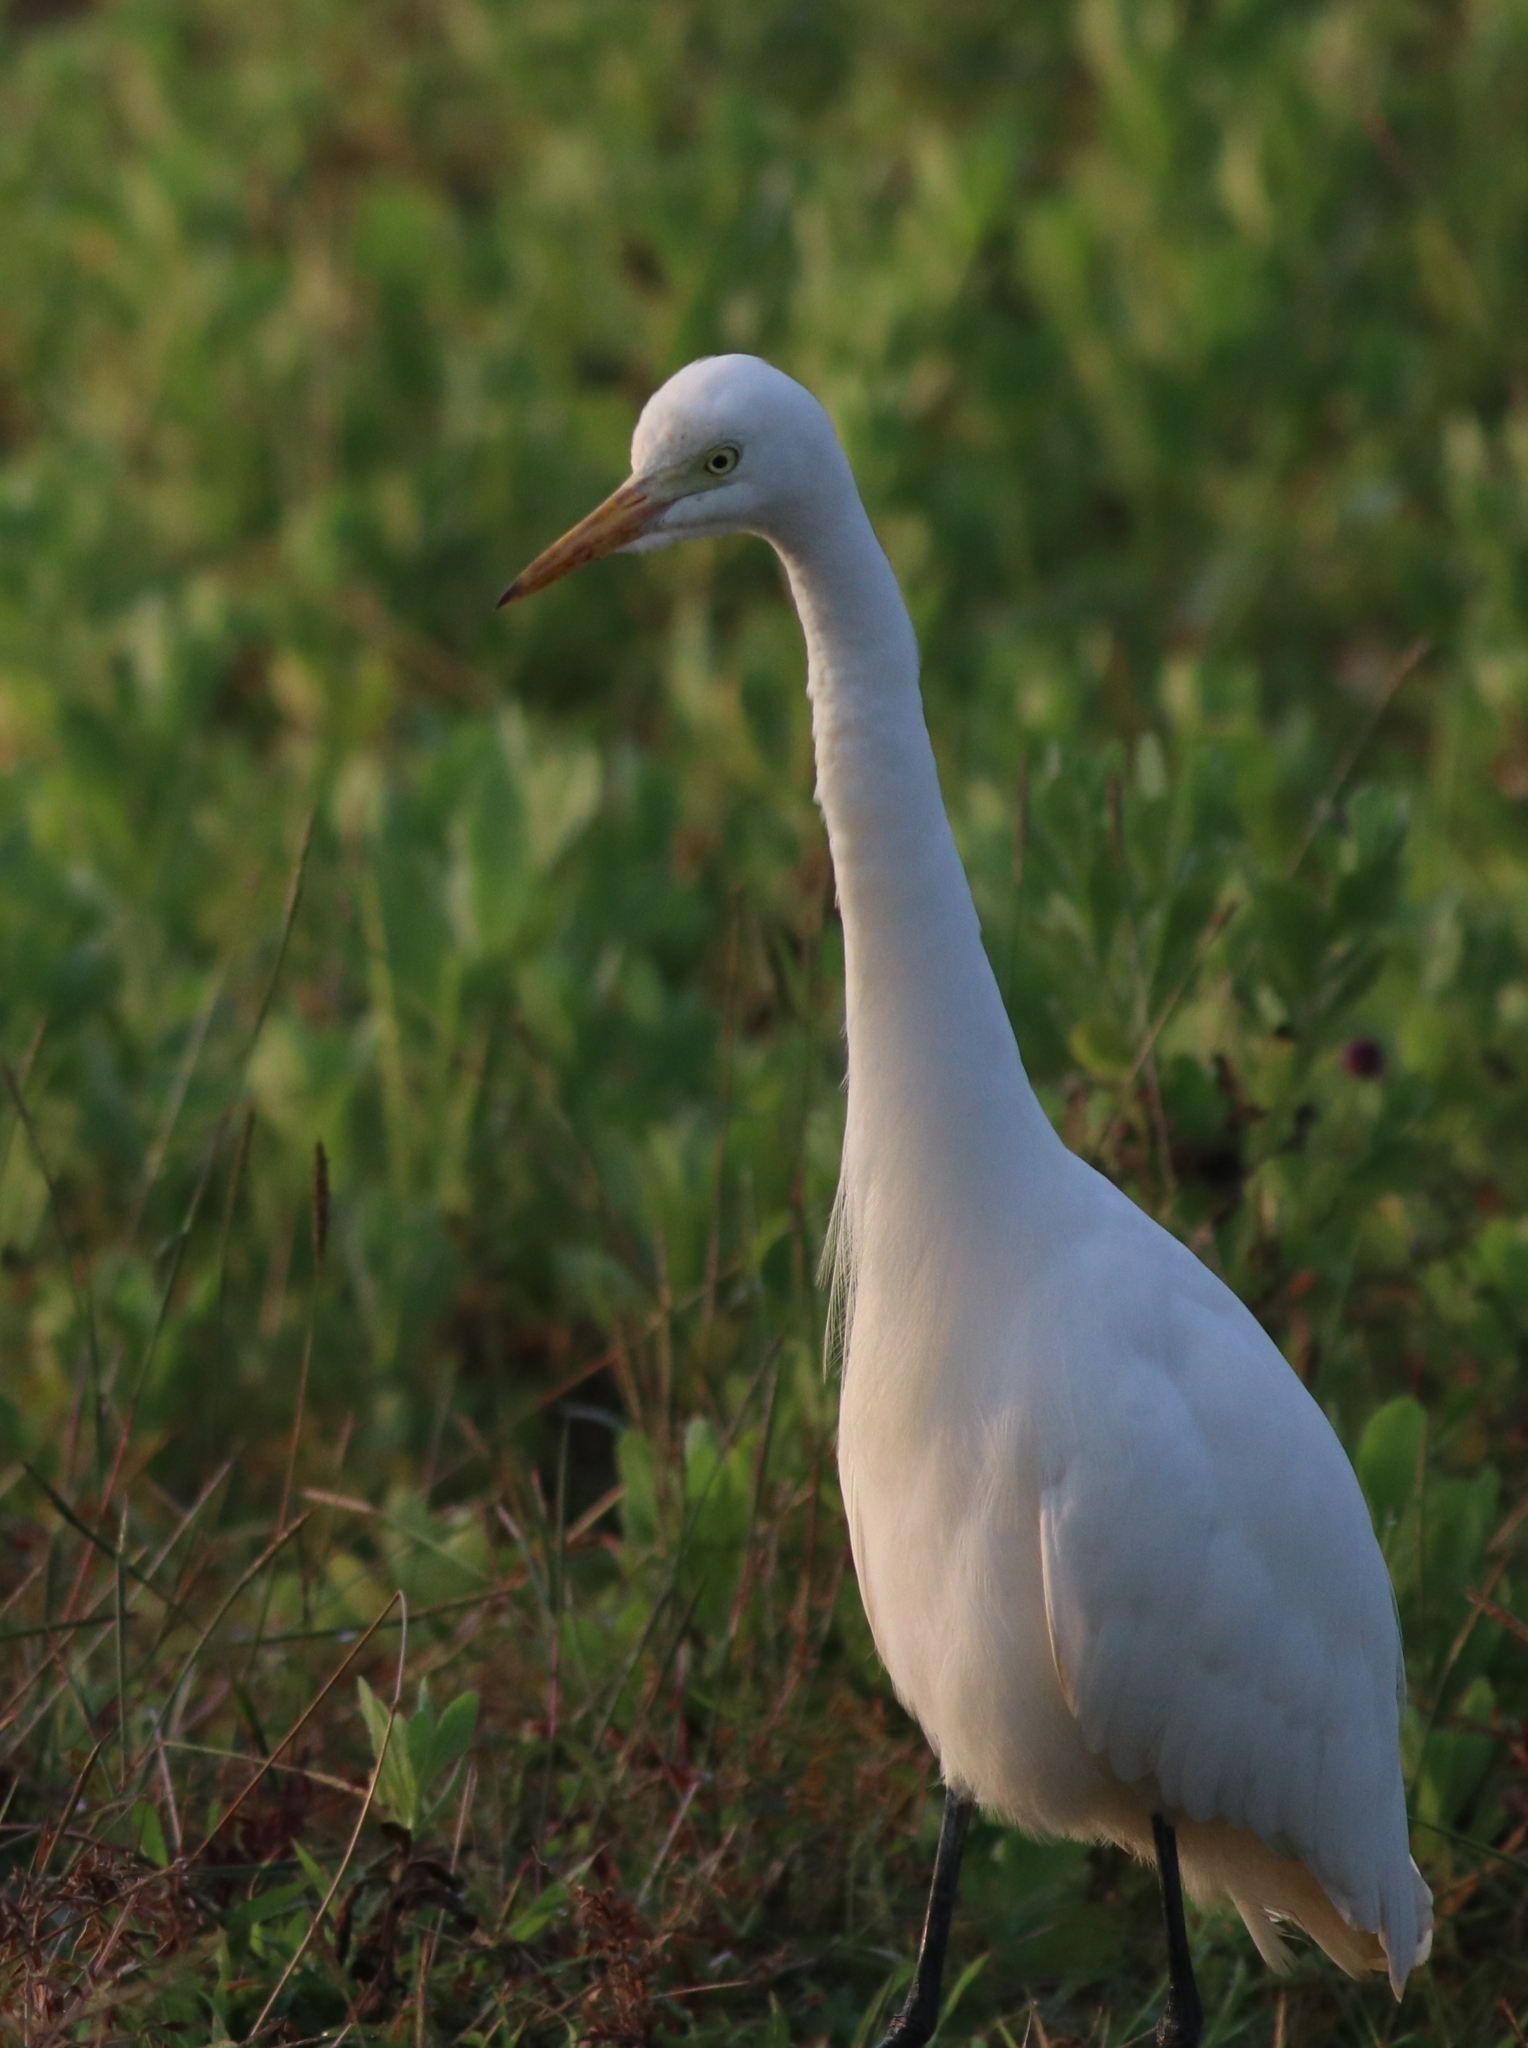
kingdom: Animalia
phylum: Chordata
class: Aves
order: Pelecaniformes
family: Ardeidae
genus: Egretta
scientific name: Egretta intermedia
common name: Intermediate egret
